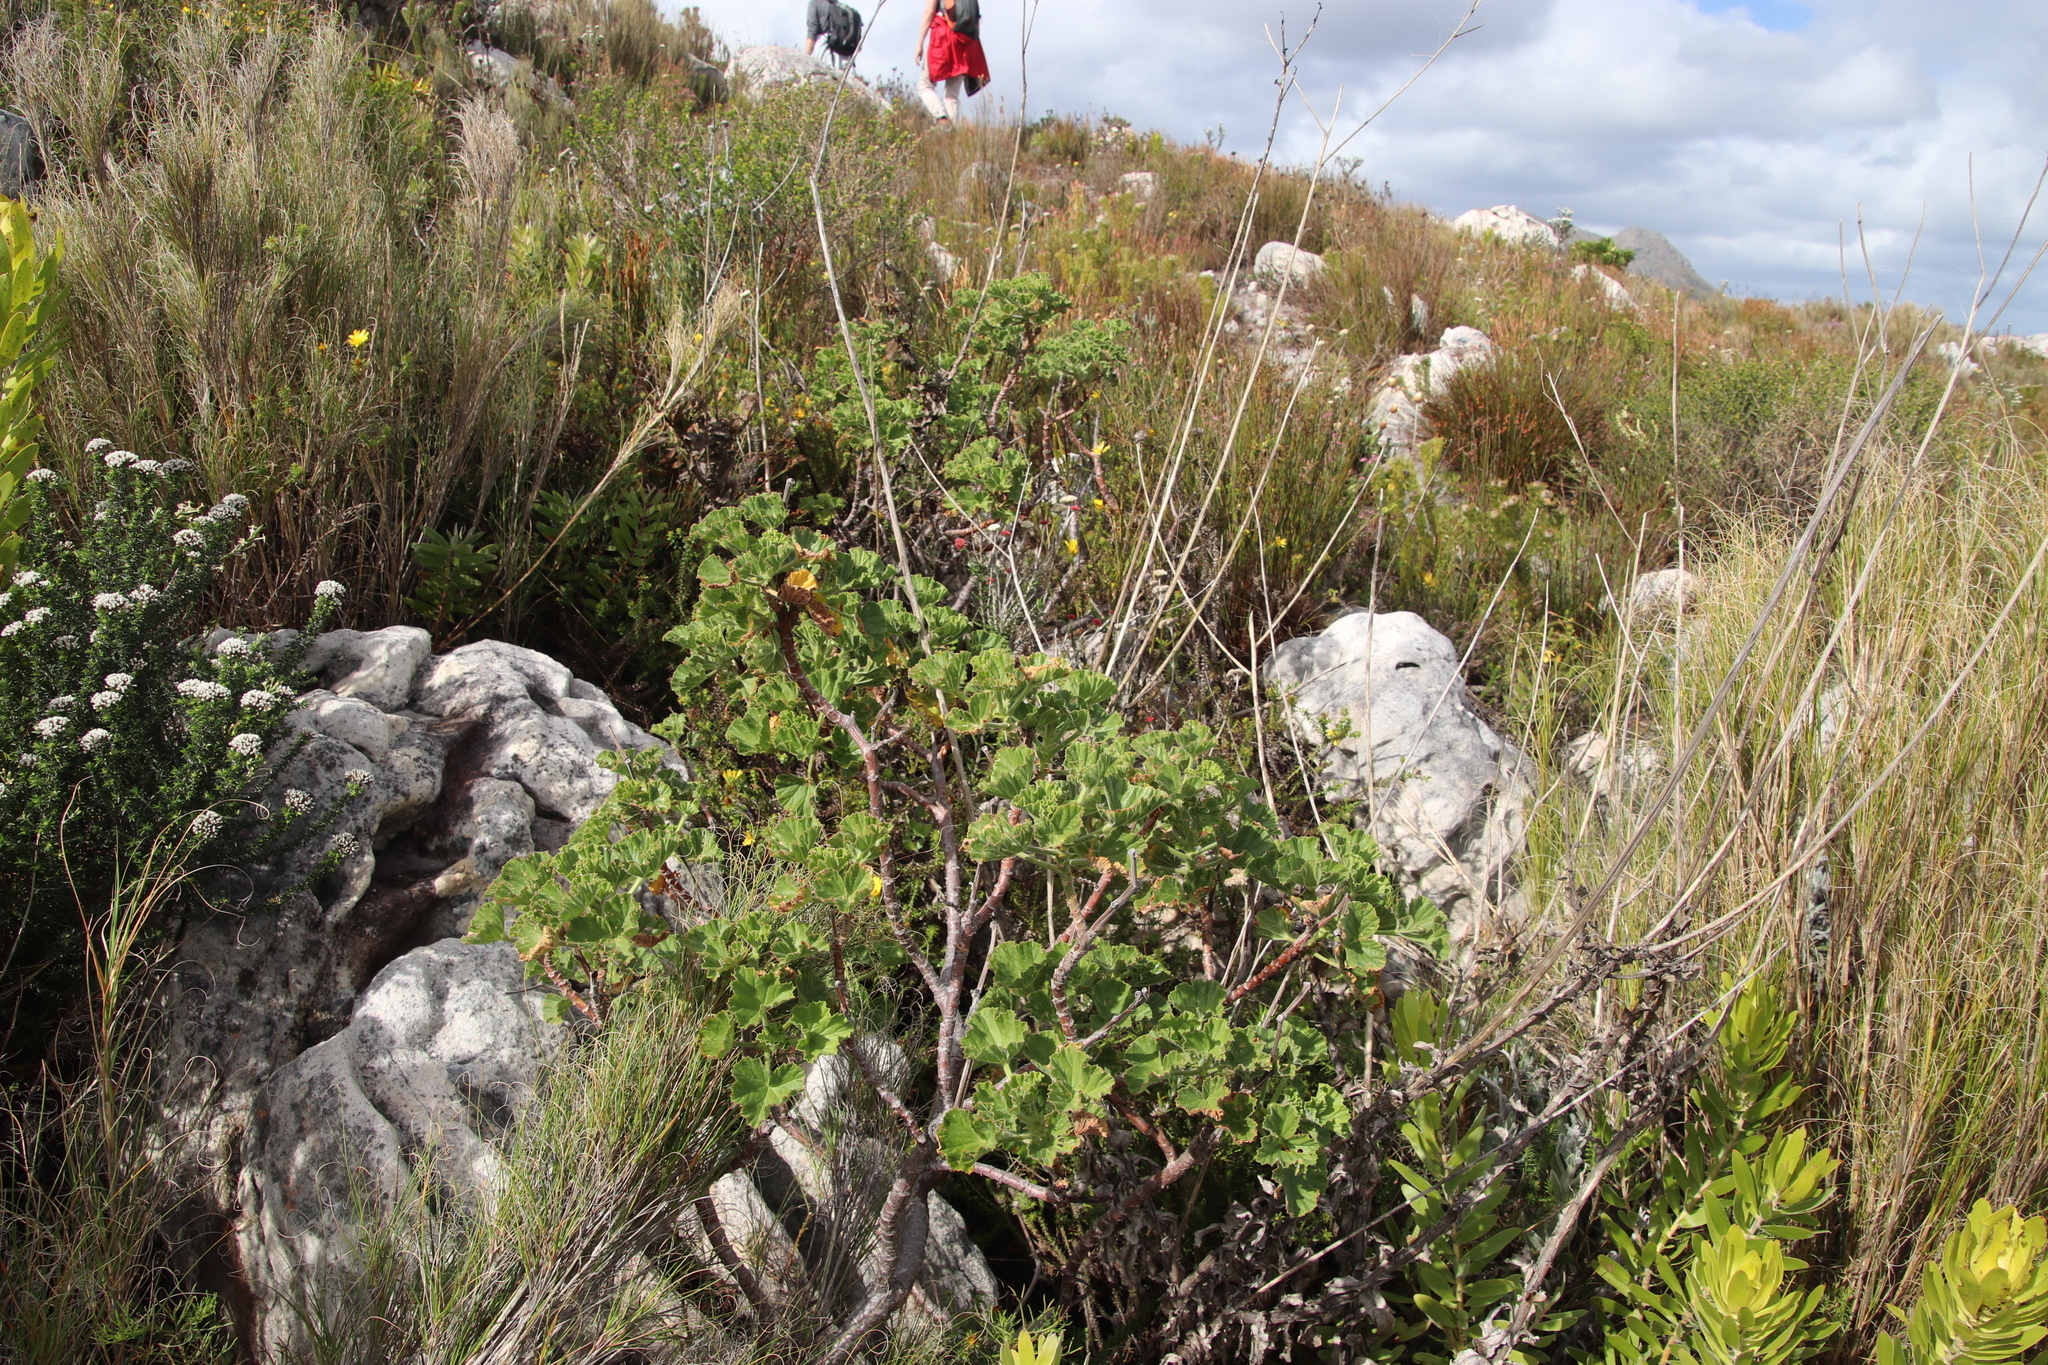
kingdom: Plantae
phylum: Tracheophyta
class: Magnoliopsida
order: Geraniales
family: Geraniaceae
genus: Pelargonium
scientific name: Pelargonium cucullatum
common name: Tree pelargonium
